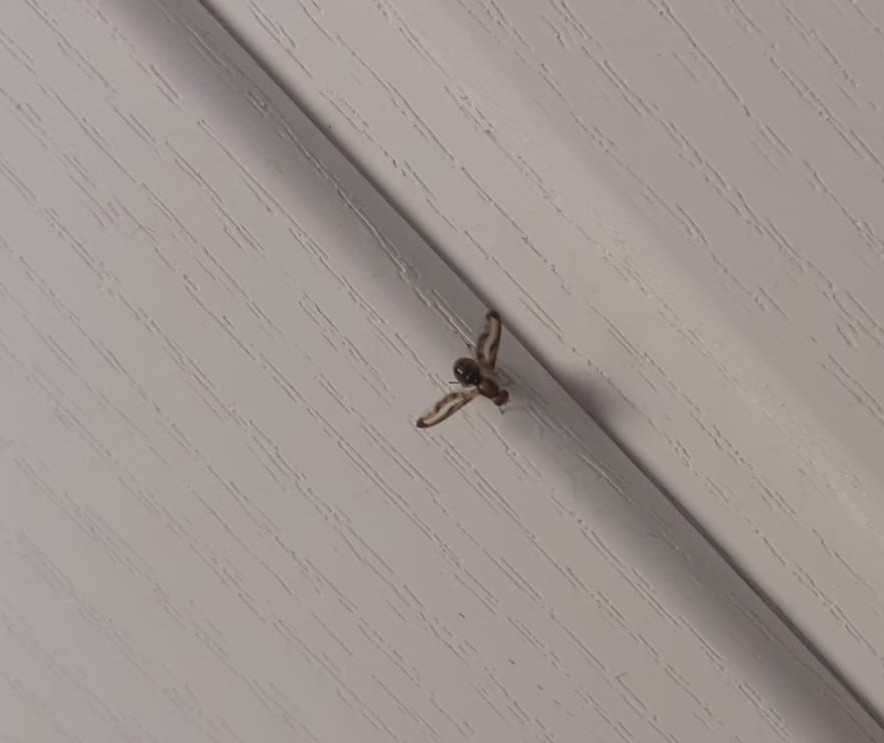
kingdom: Animalia
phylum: Arthropoda
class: Insecta
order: Diptera
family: Pallopteridae
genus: Toxonevra
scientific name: Toxonevra muliebris
